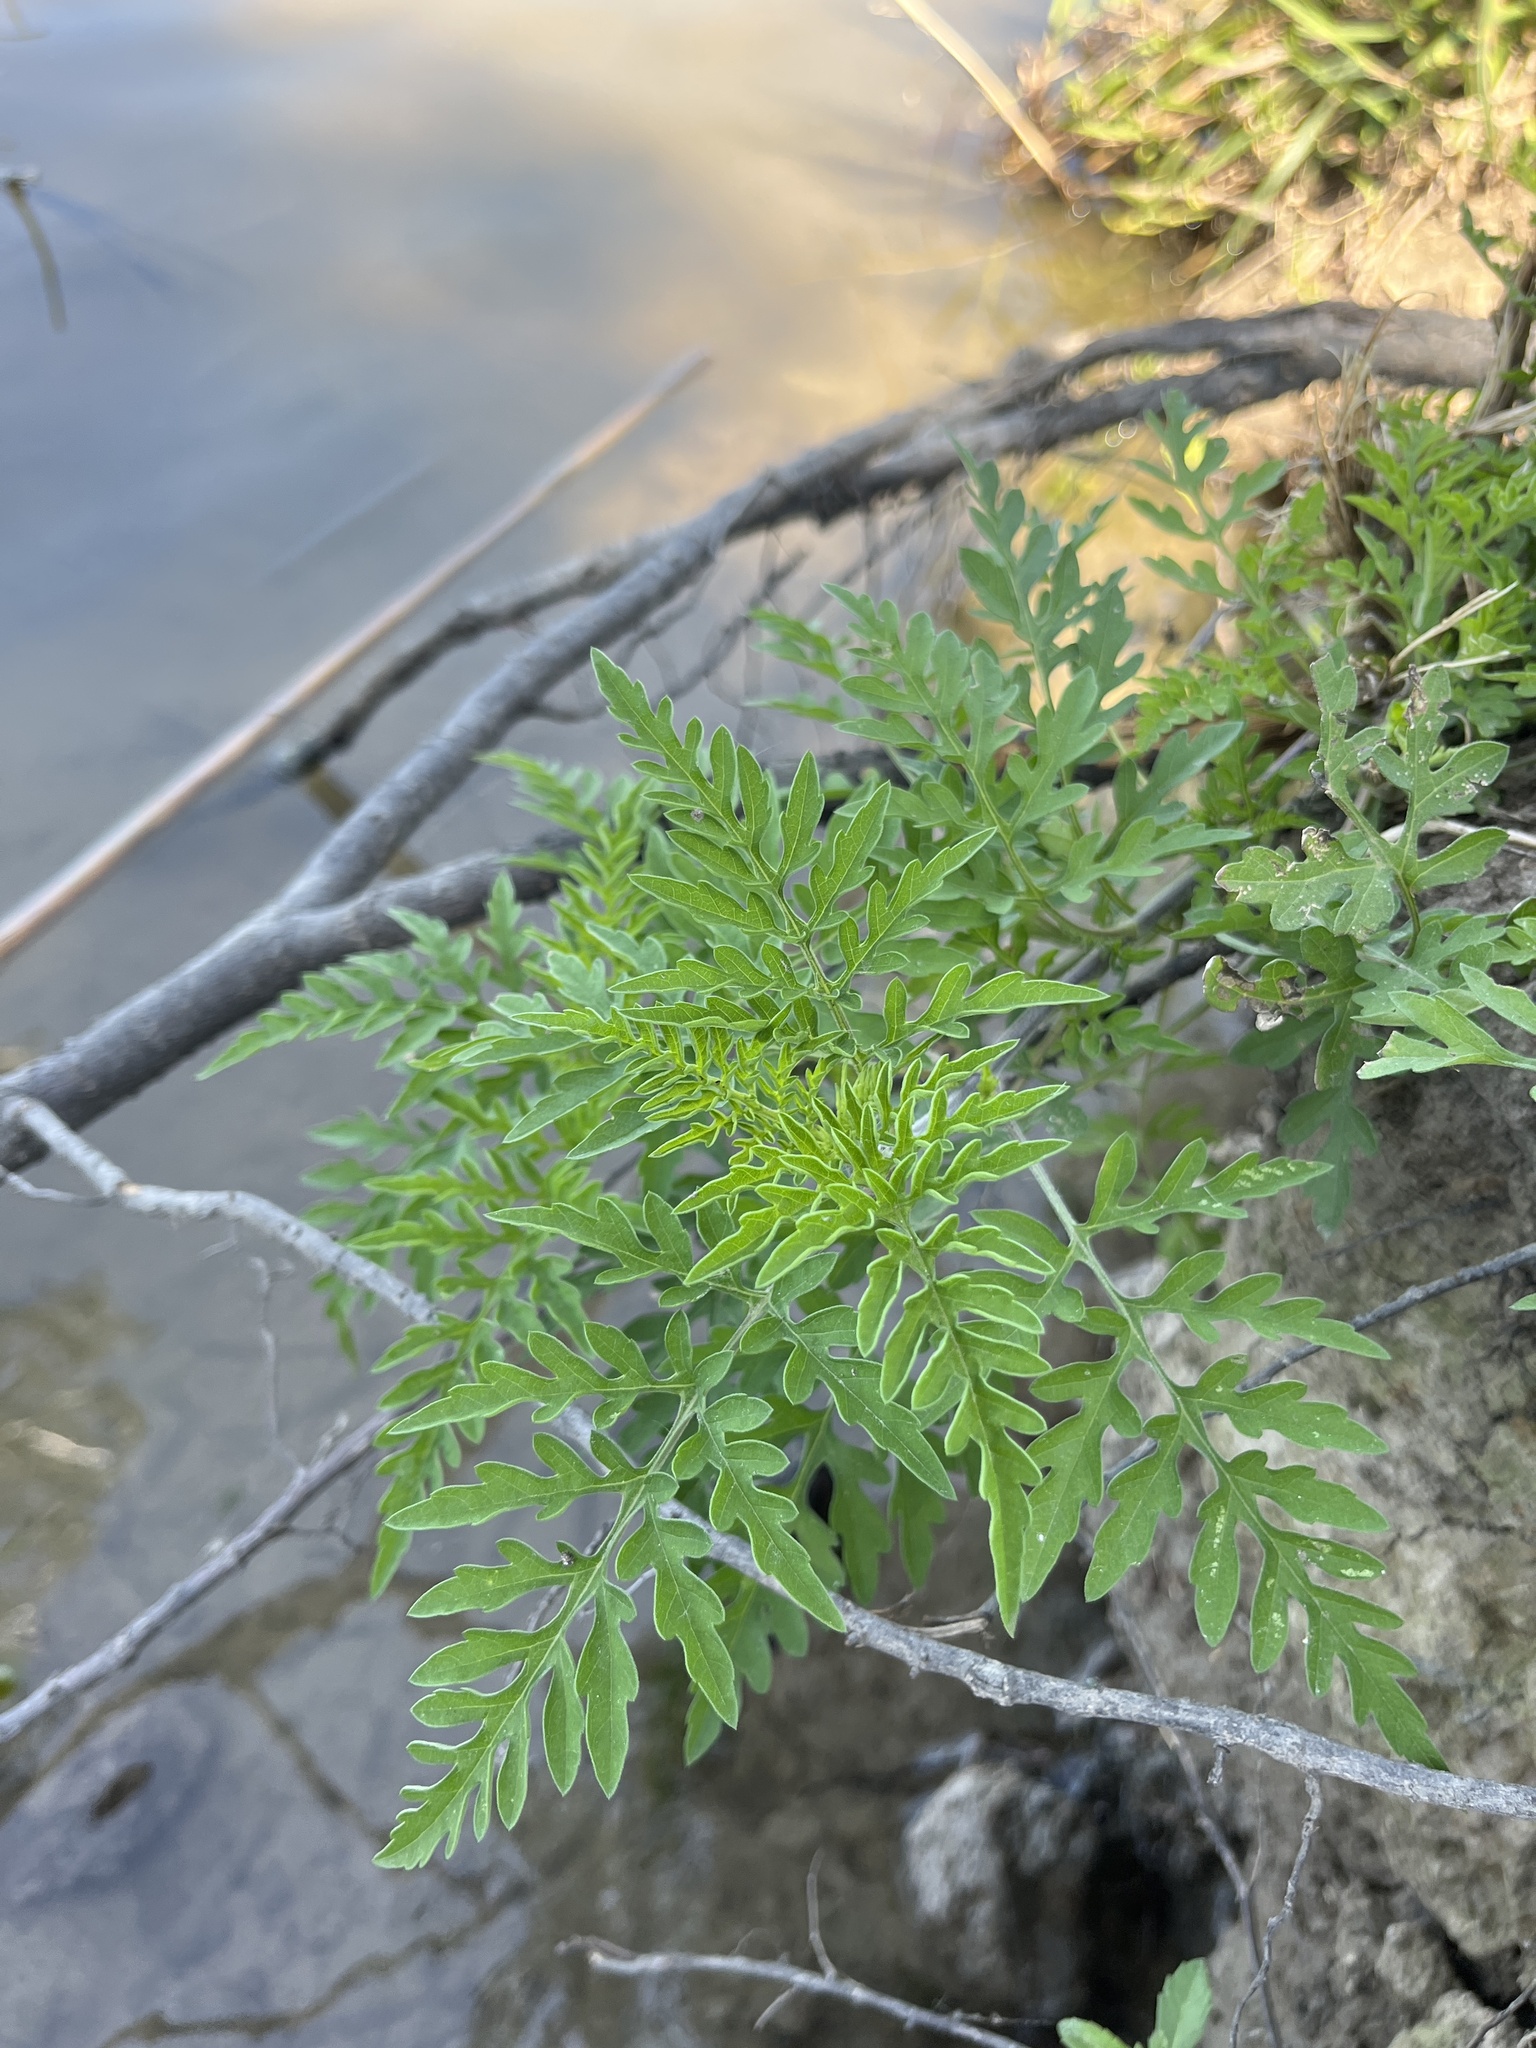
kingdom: Plantae
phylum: Tracheophyta
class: Magnoliopsida
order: Asterales
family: Asteraceae
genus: Ambrosia
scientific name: Ambrosia artemisiifolia
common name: Annual ragweed
